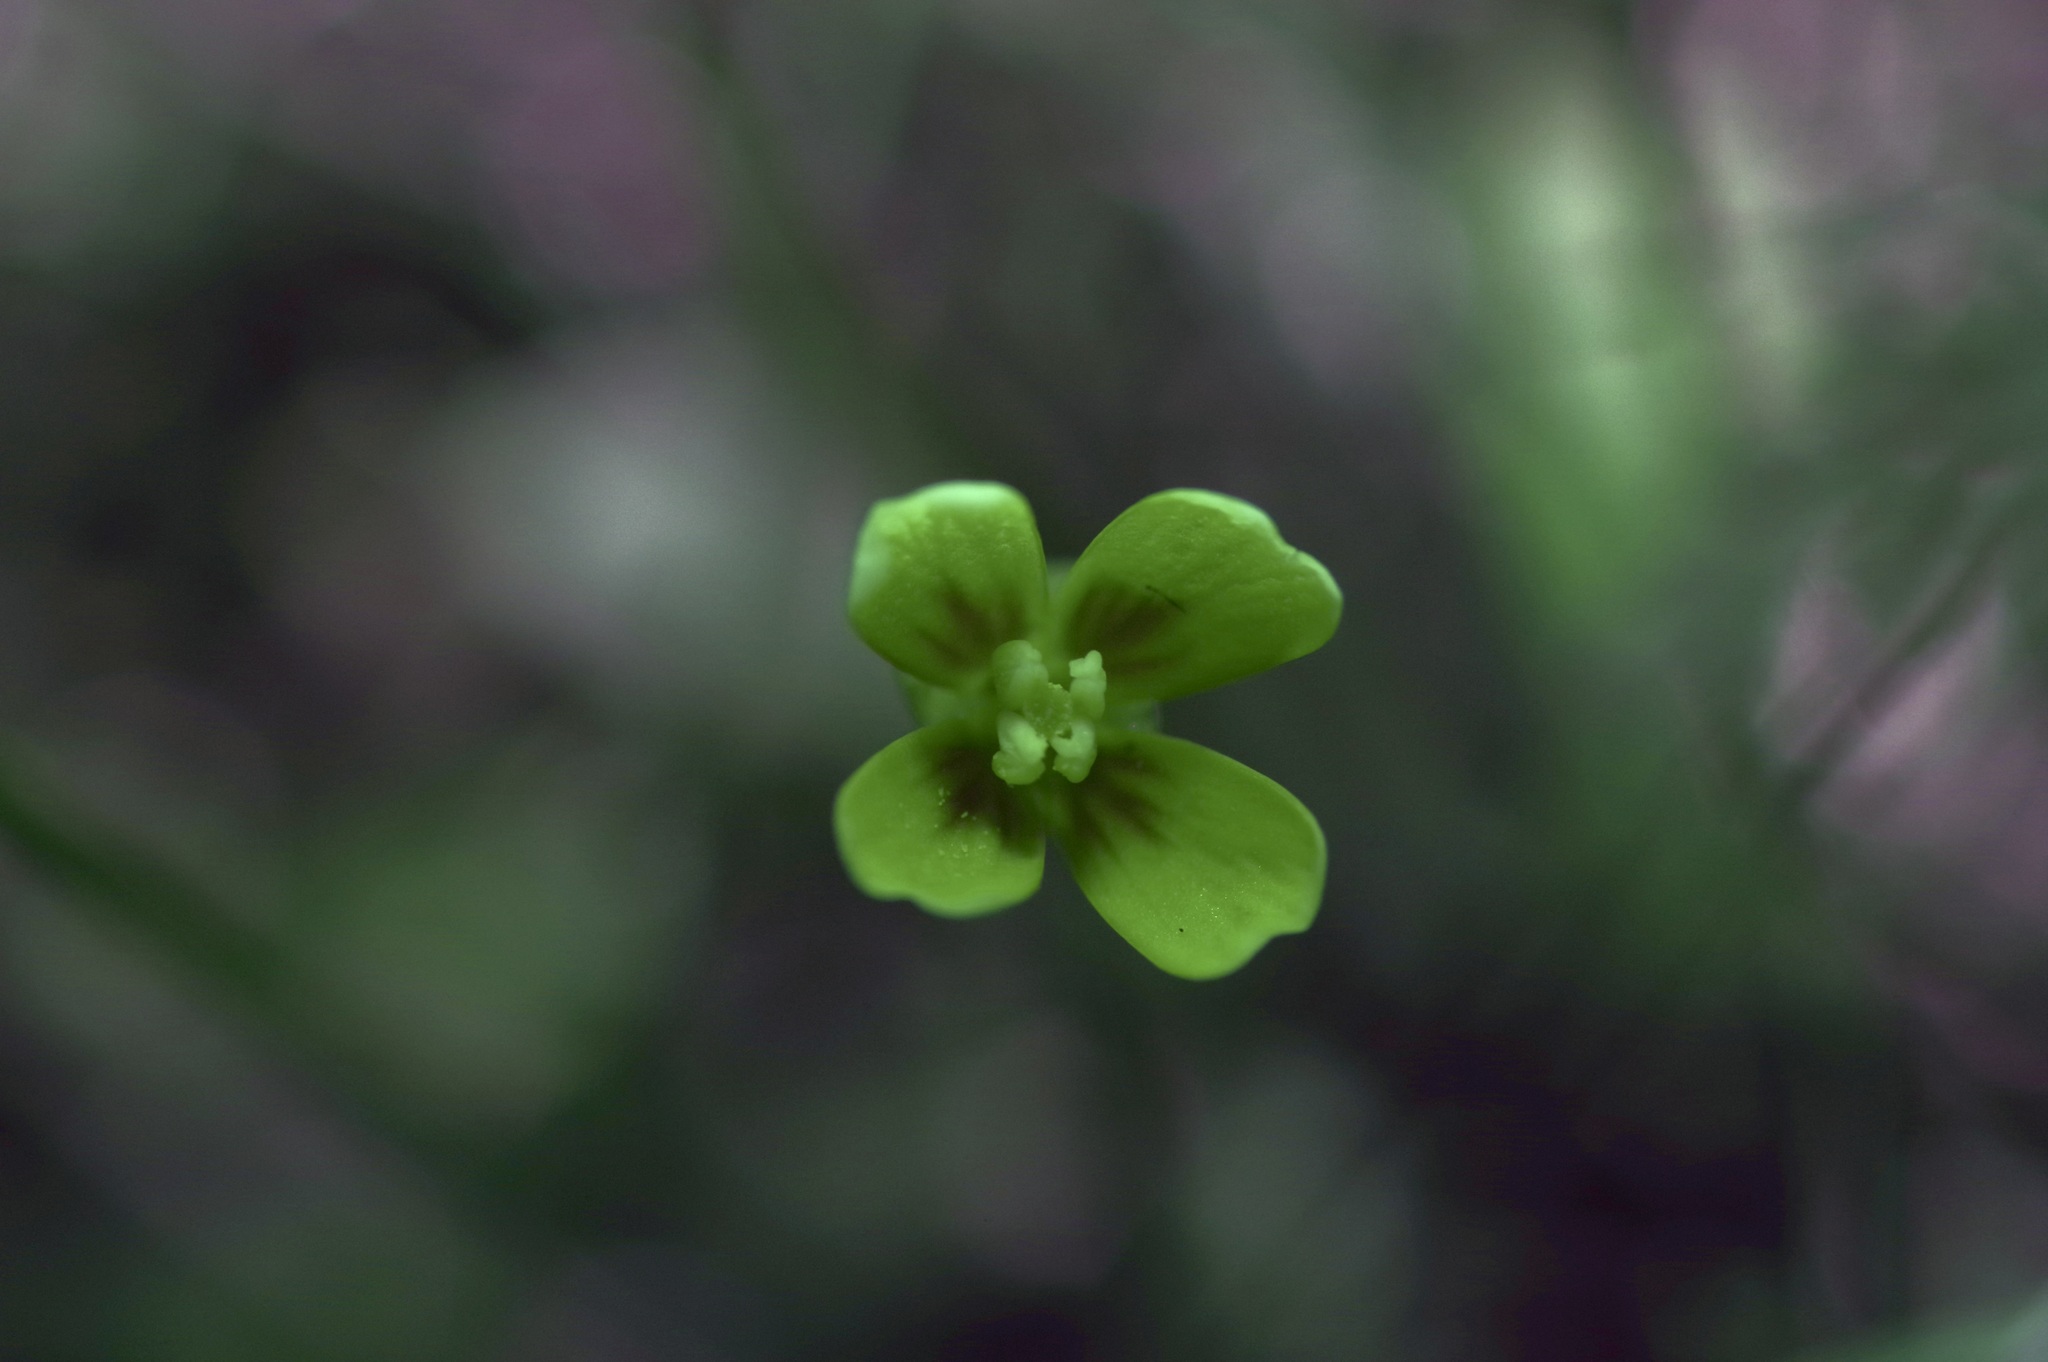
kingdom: Plantae
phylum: Tracheophyta
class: Magnoliopsida
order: Brassicales
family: Brassicaceae
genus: Leavenworthia
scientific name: Leavenworthia texana
